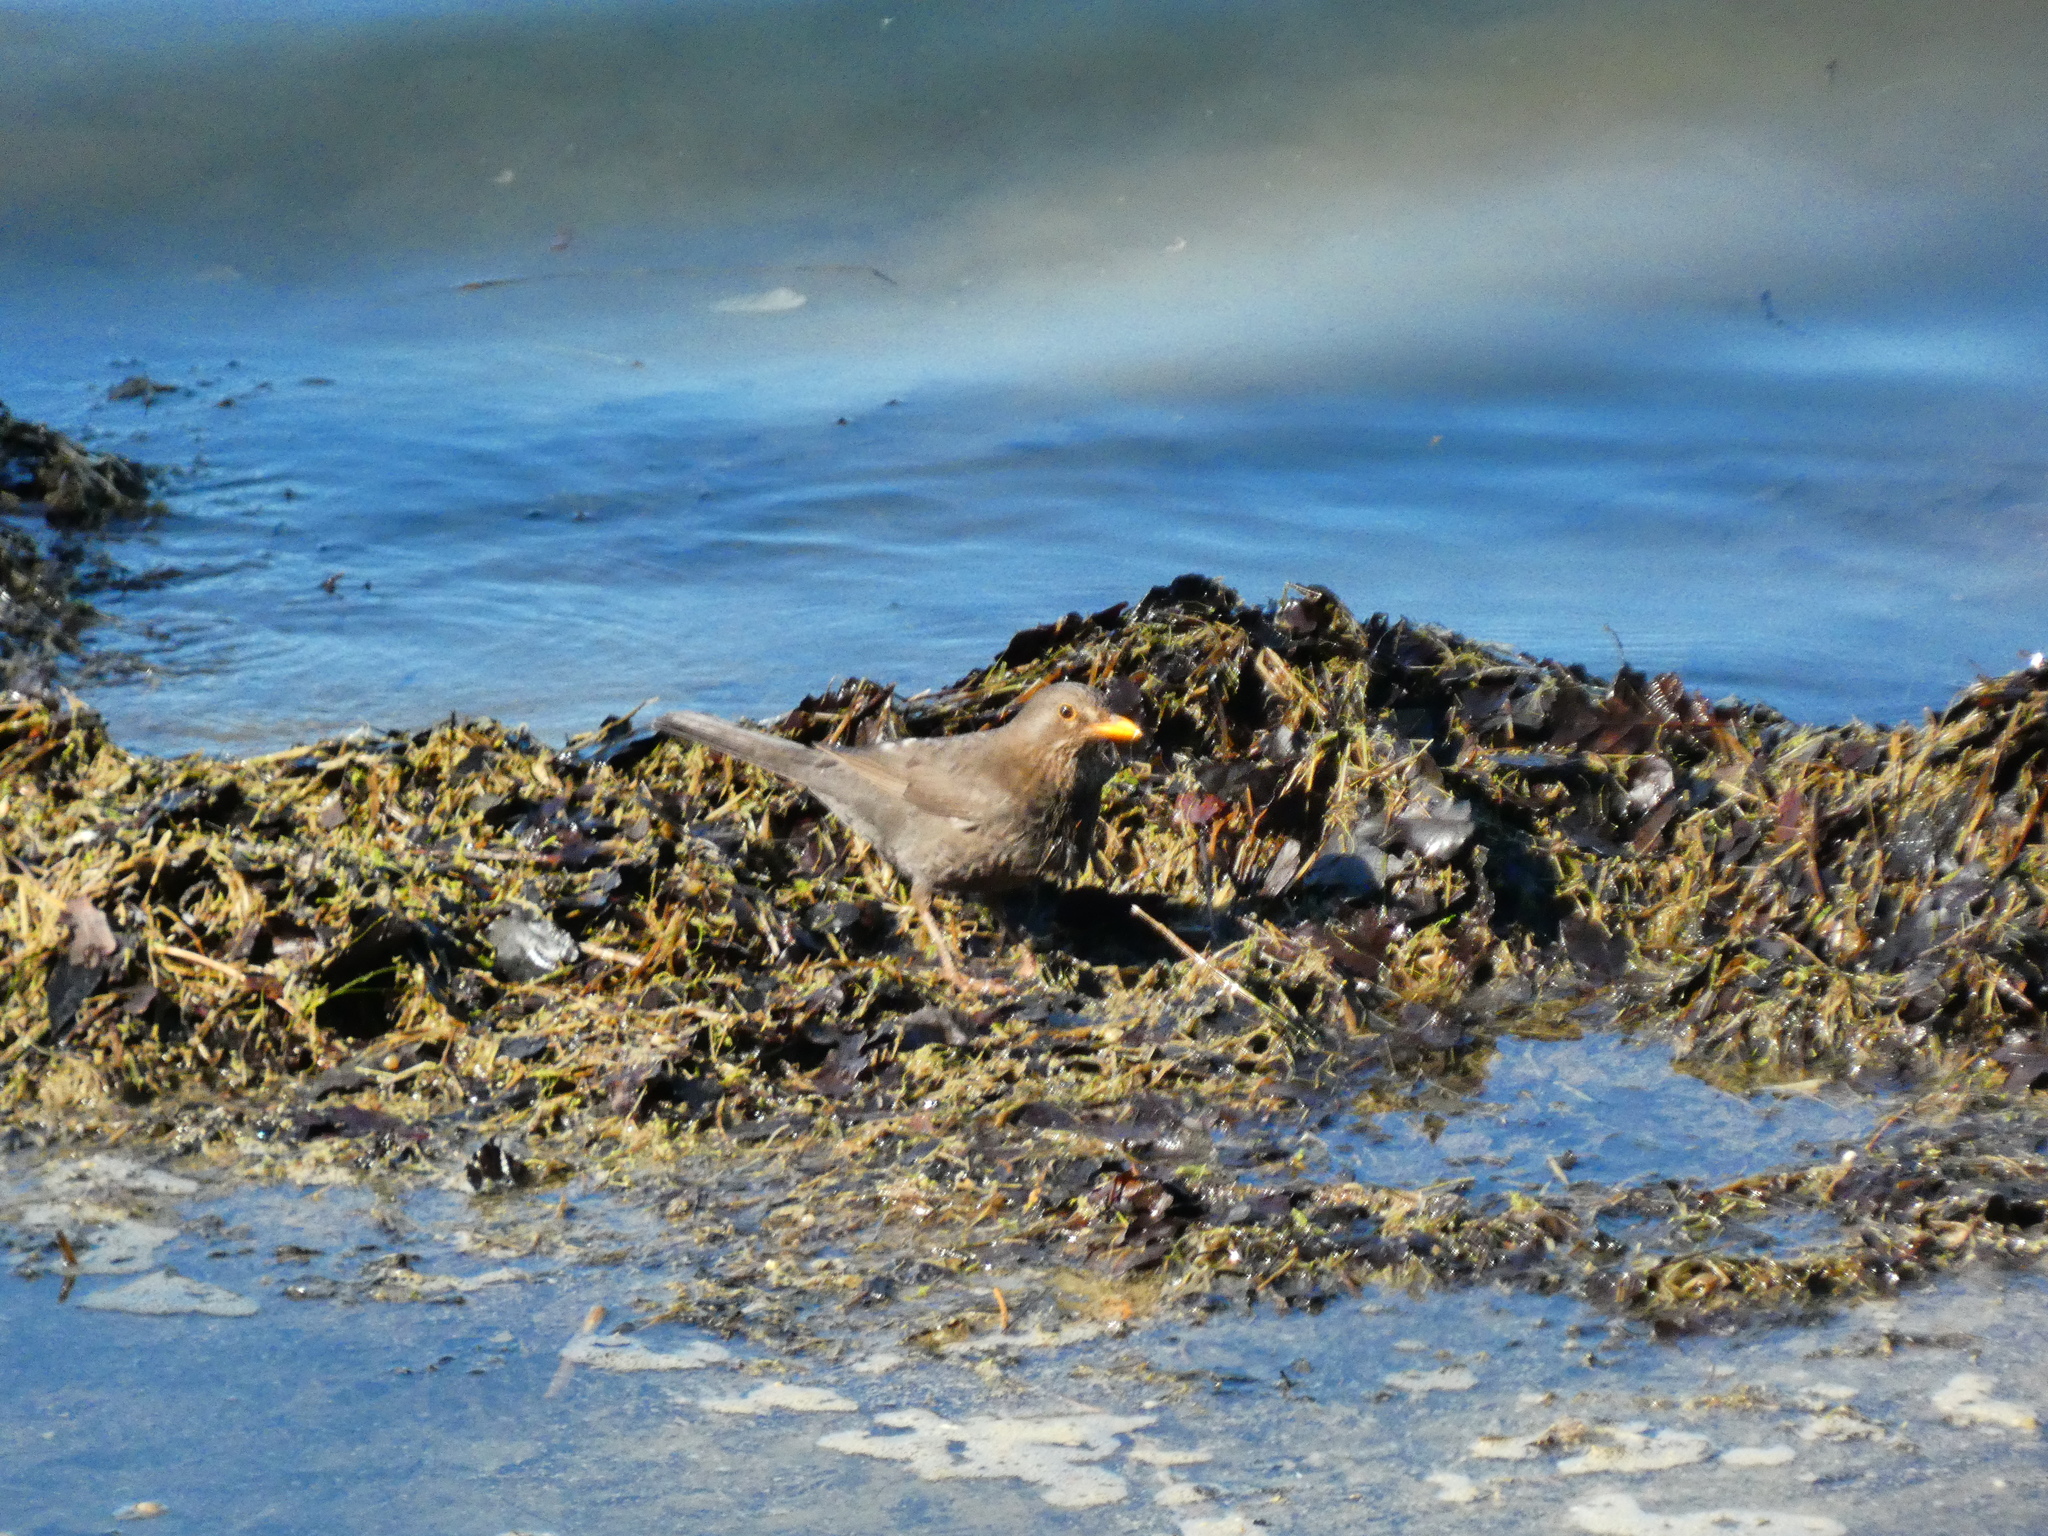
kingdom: Animalia
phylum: Chordata
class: Aves
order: Passeriformes
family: Turdidae
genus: Turdus
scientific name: Turdus merula
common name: Common blackbird
